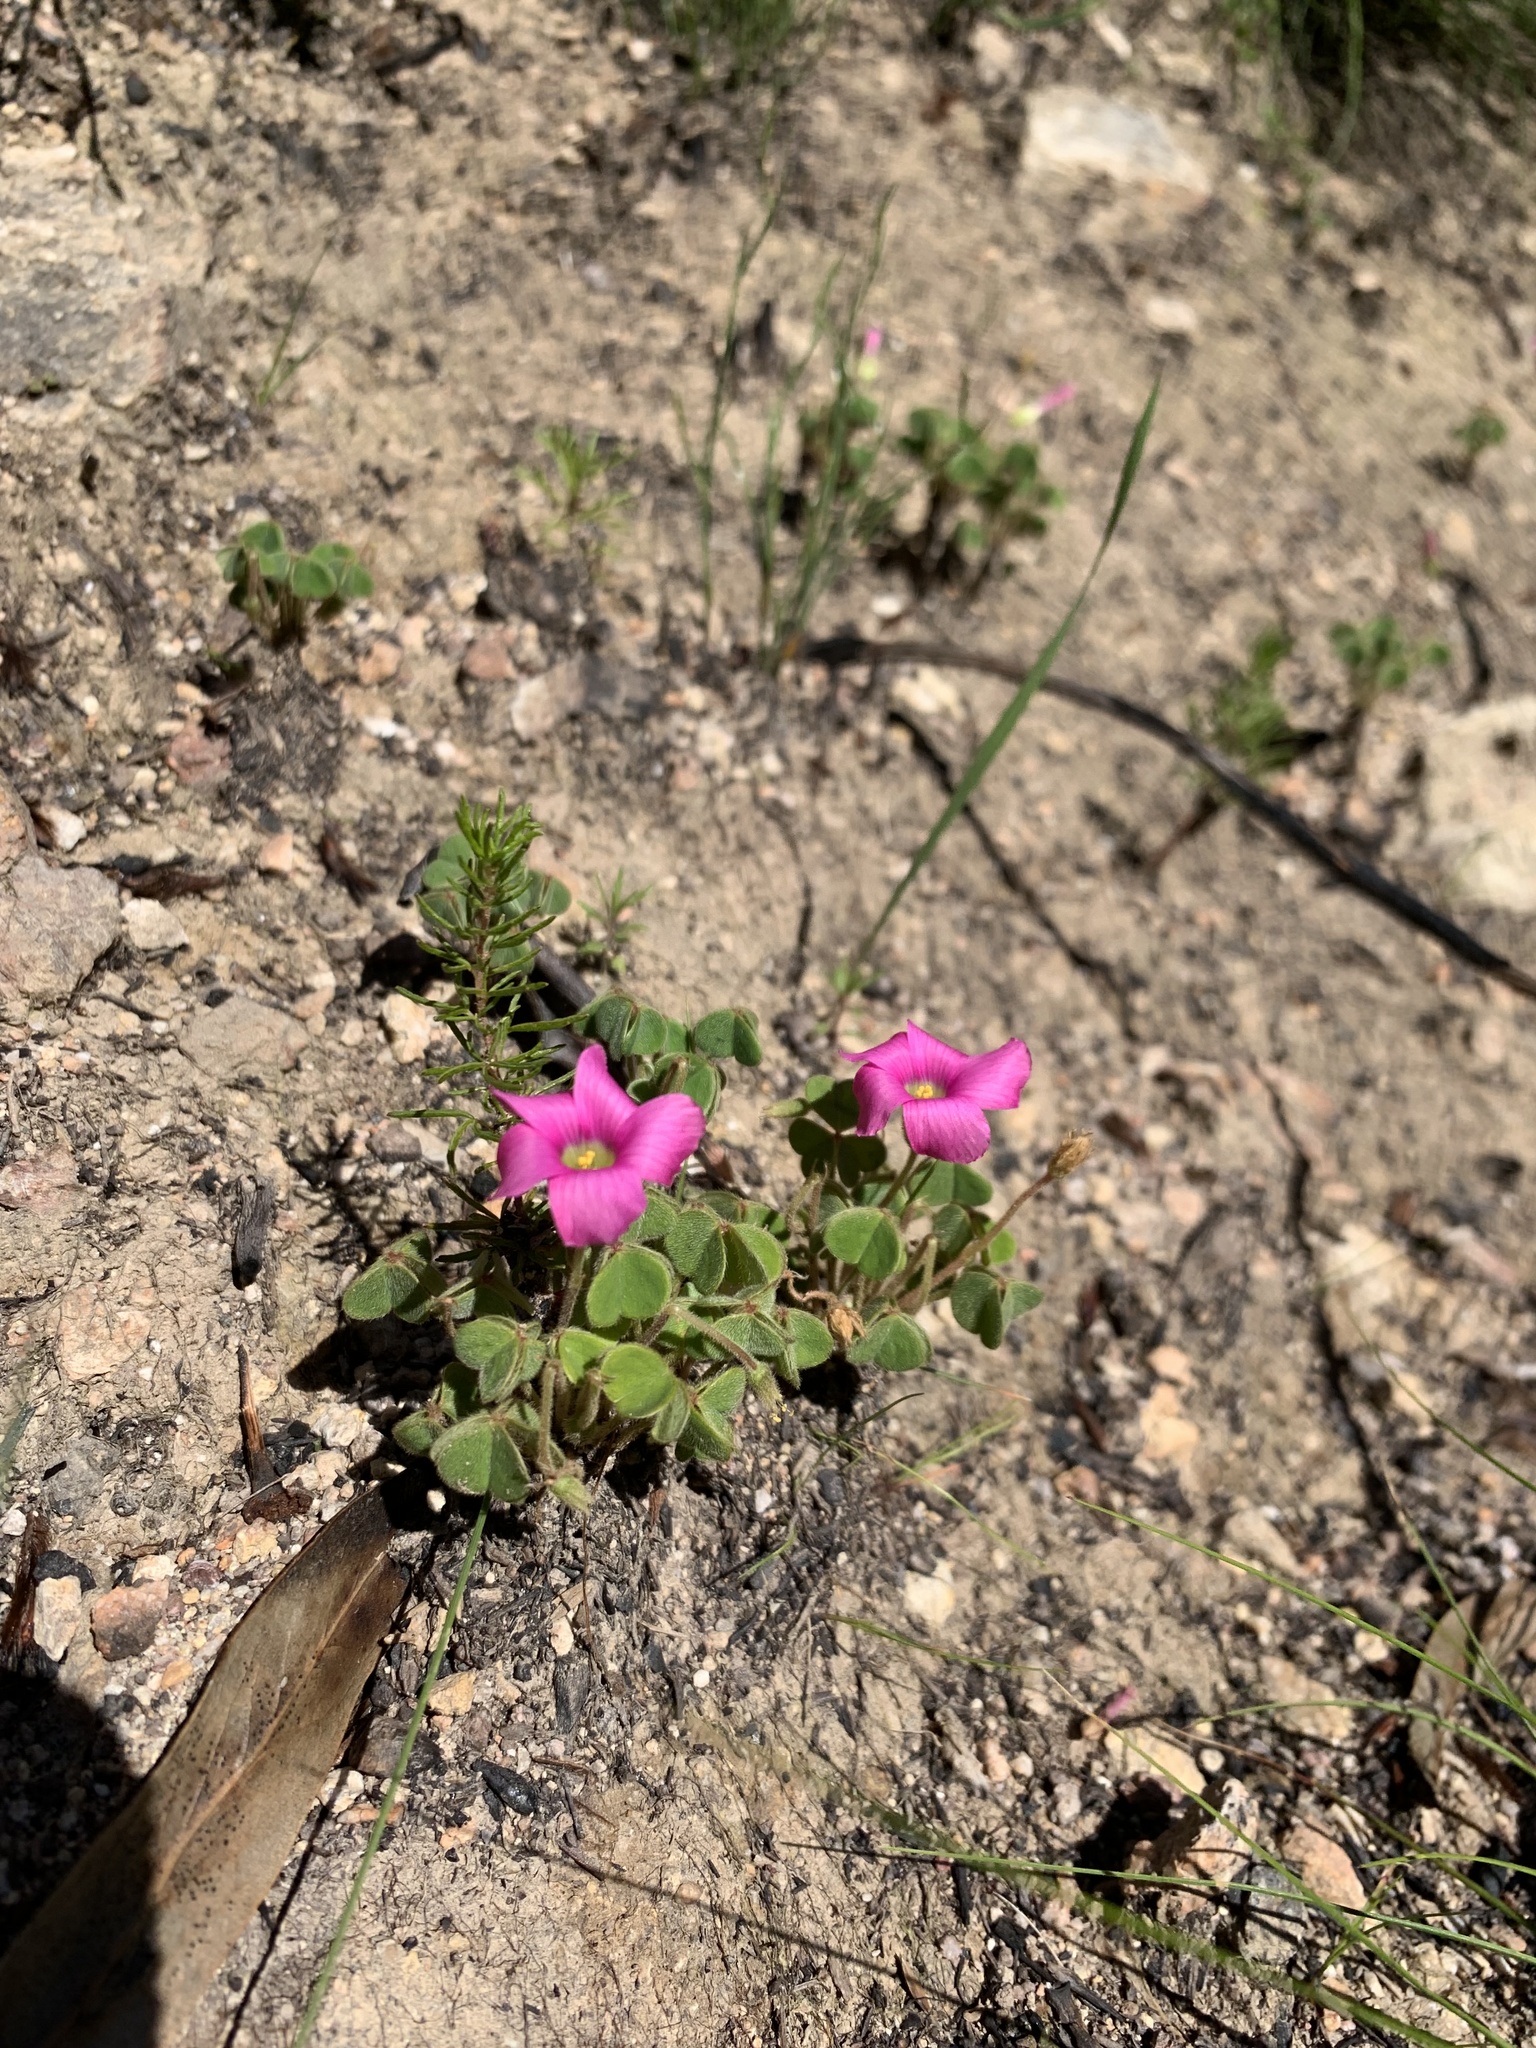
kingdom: Plantae
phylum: Tracheophyta
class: Magnoliopsida
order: Oxalidales
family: Oxalidaceae
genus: Oxalis
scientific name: Oxalis lanata
